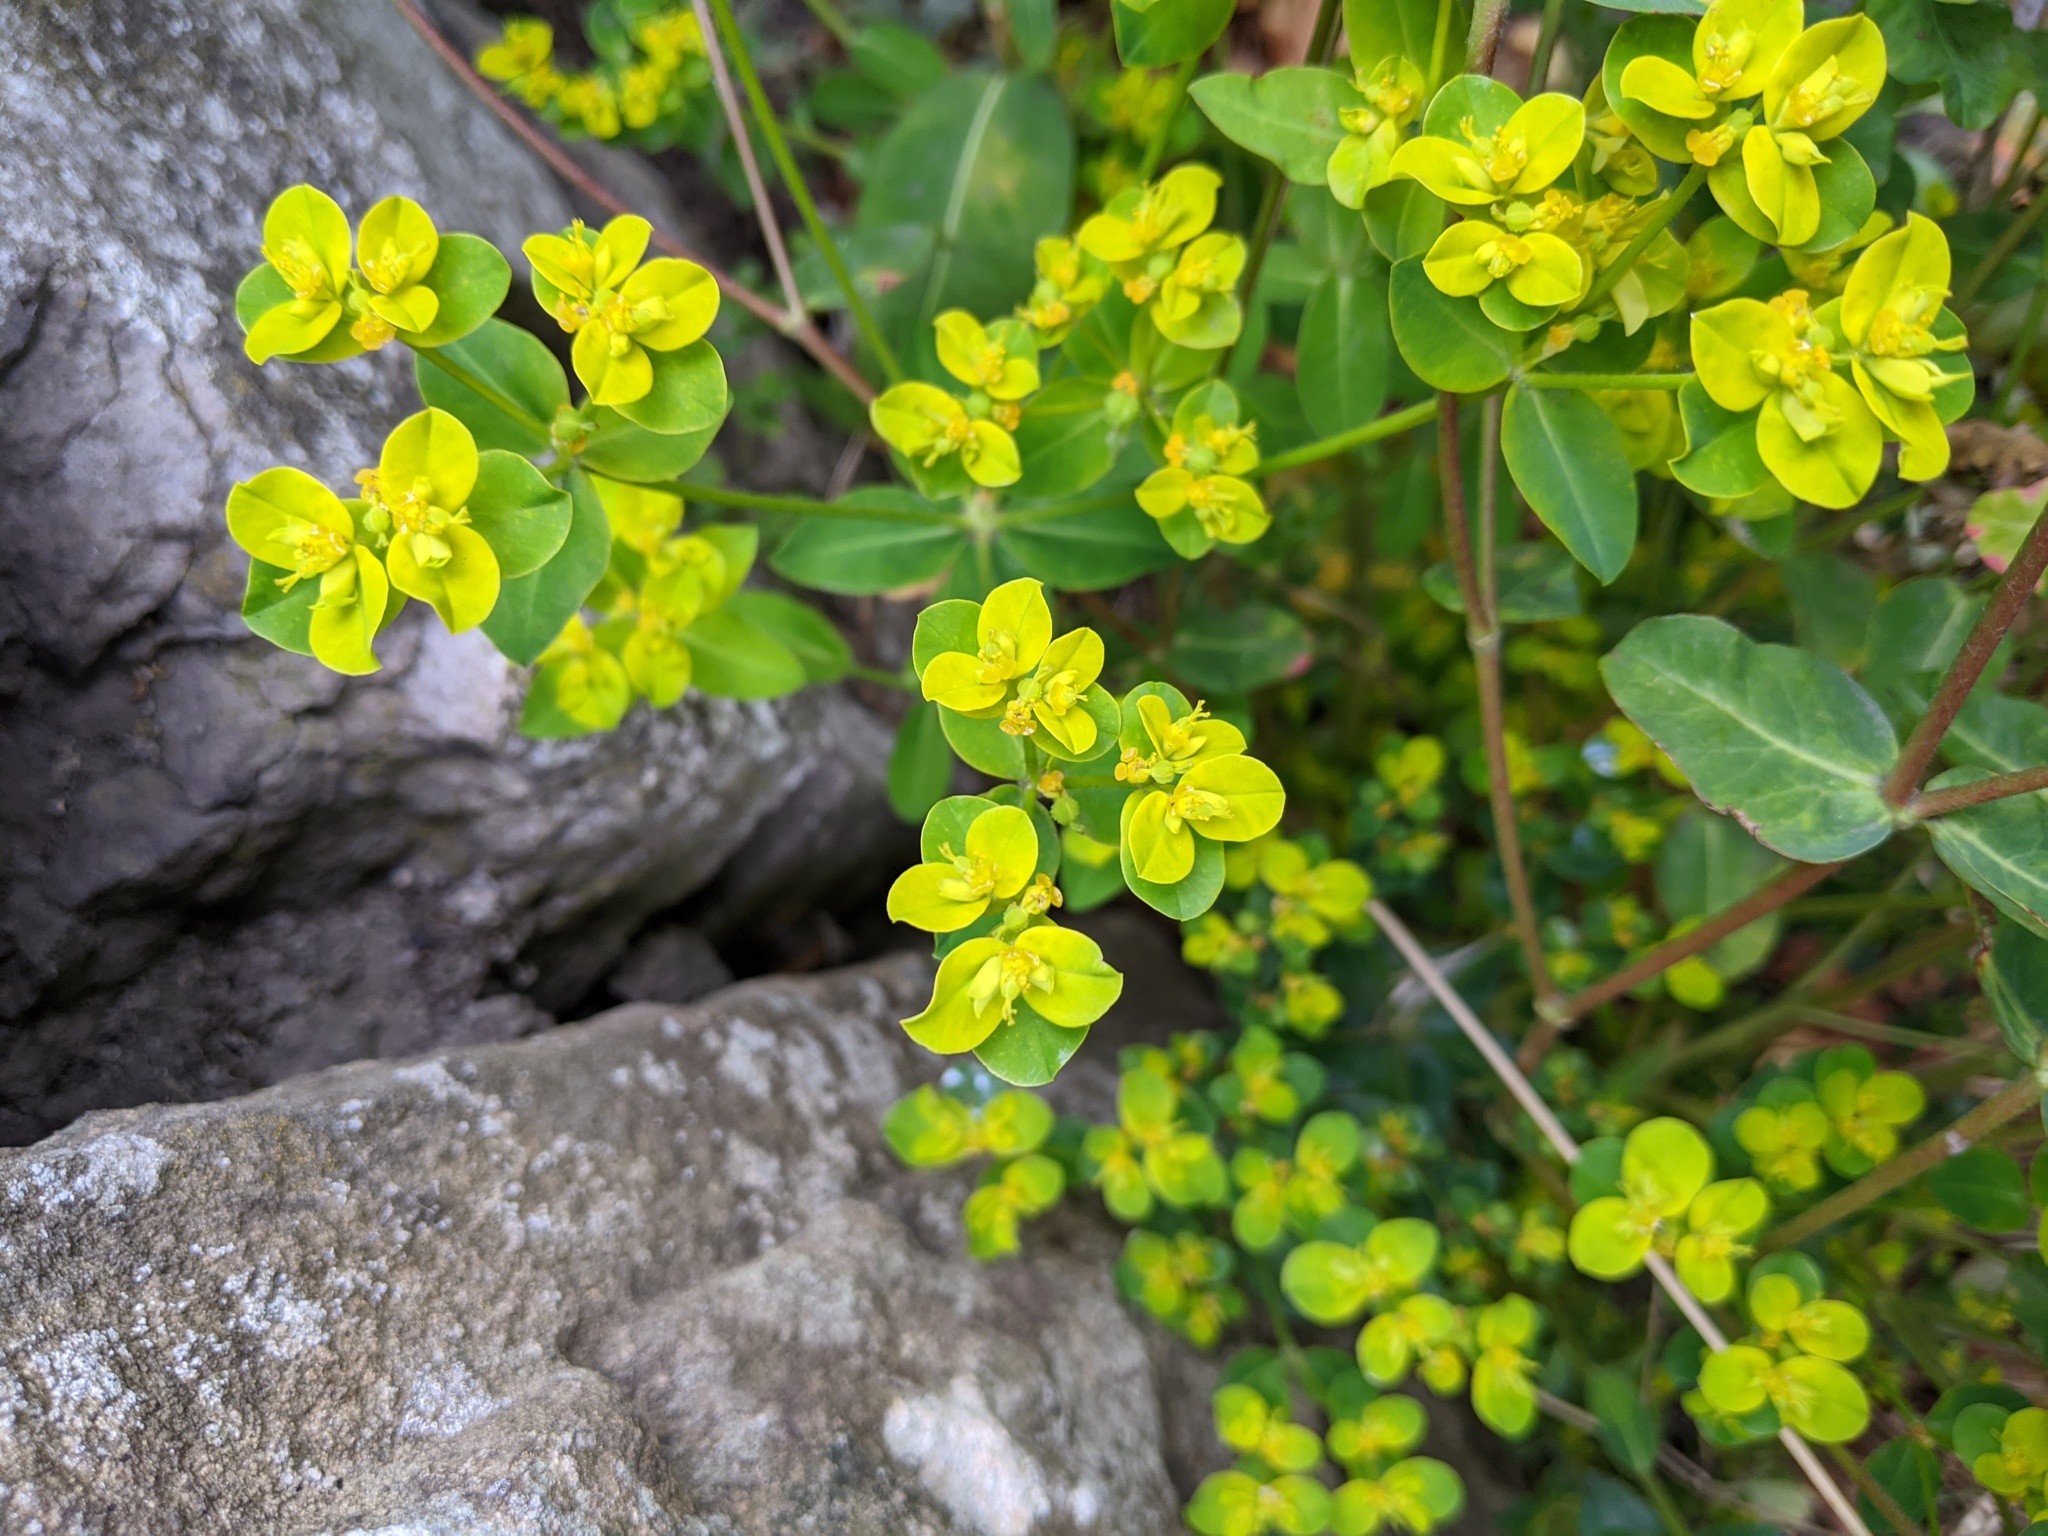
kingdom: Plantae
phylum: Tracheophyta
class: Magnoliopsida
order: Malpighiales
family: Euphorbiaceae
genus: Euphorbia
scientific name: Euphorbia oblongata
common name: Balkan spurge
